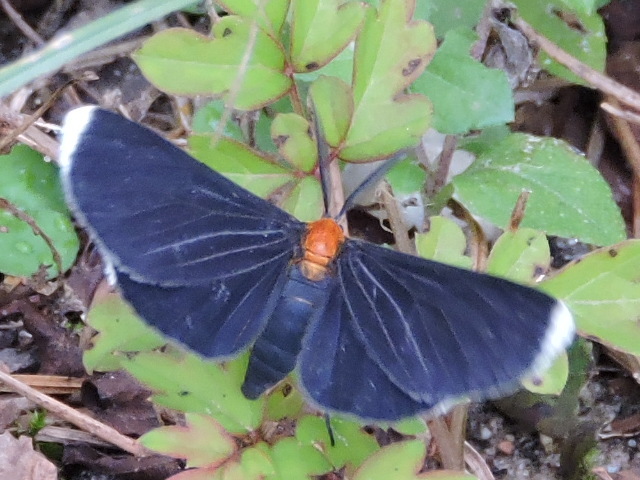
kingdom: Animalia
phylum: Arthropoda
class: Insecta
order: Lepidoptera
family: Geometridae
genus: Melanchroia
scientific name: Melanchroia chephise
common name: White-tipped black
